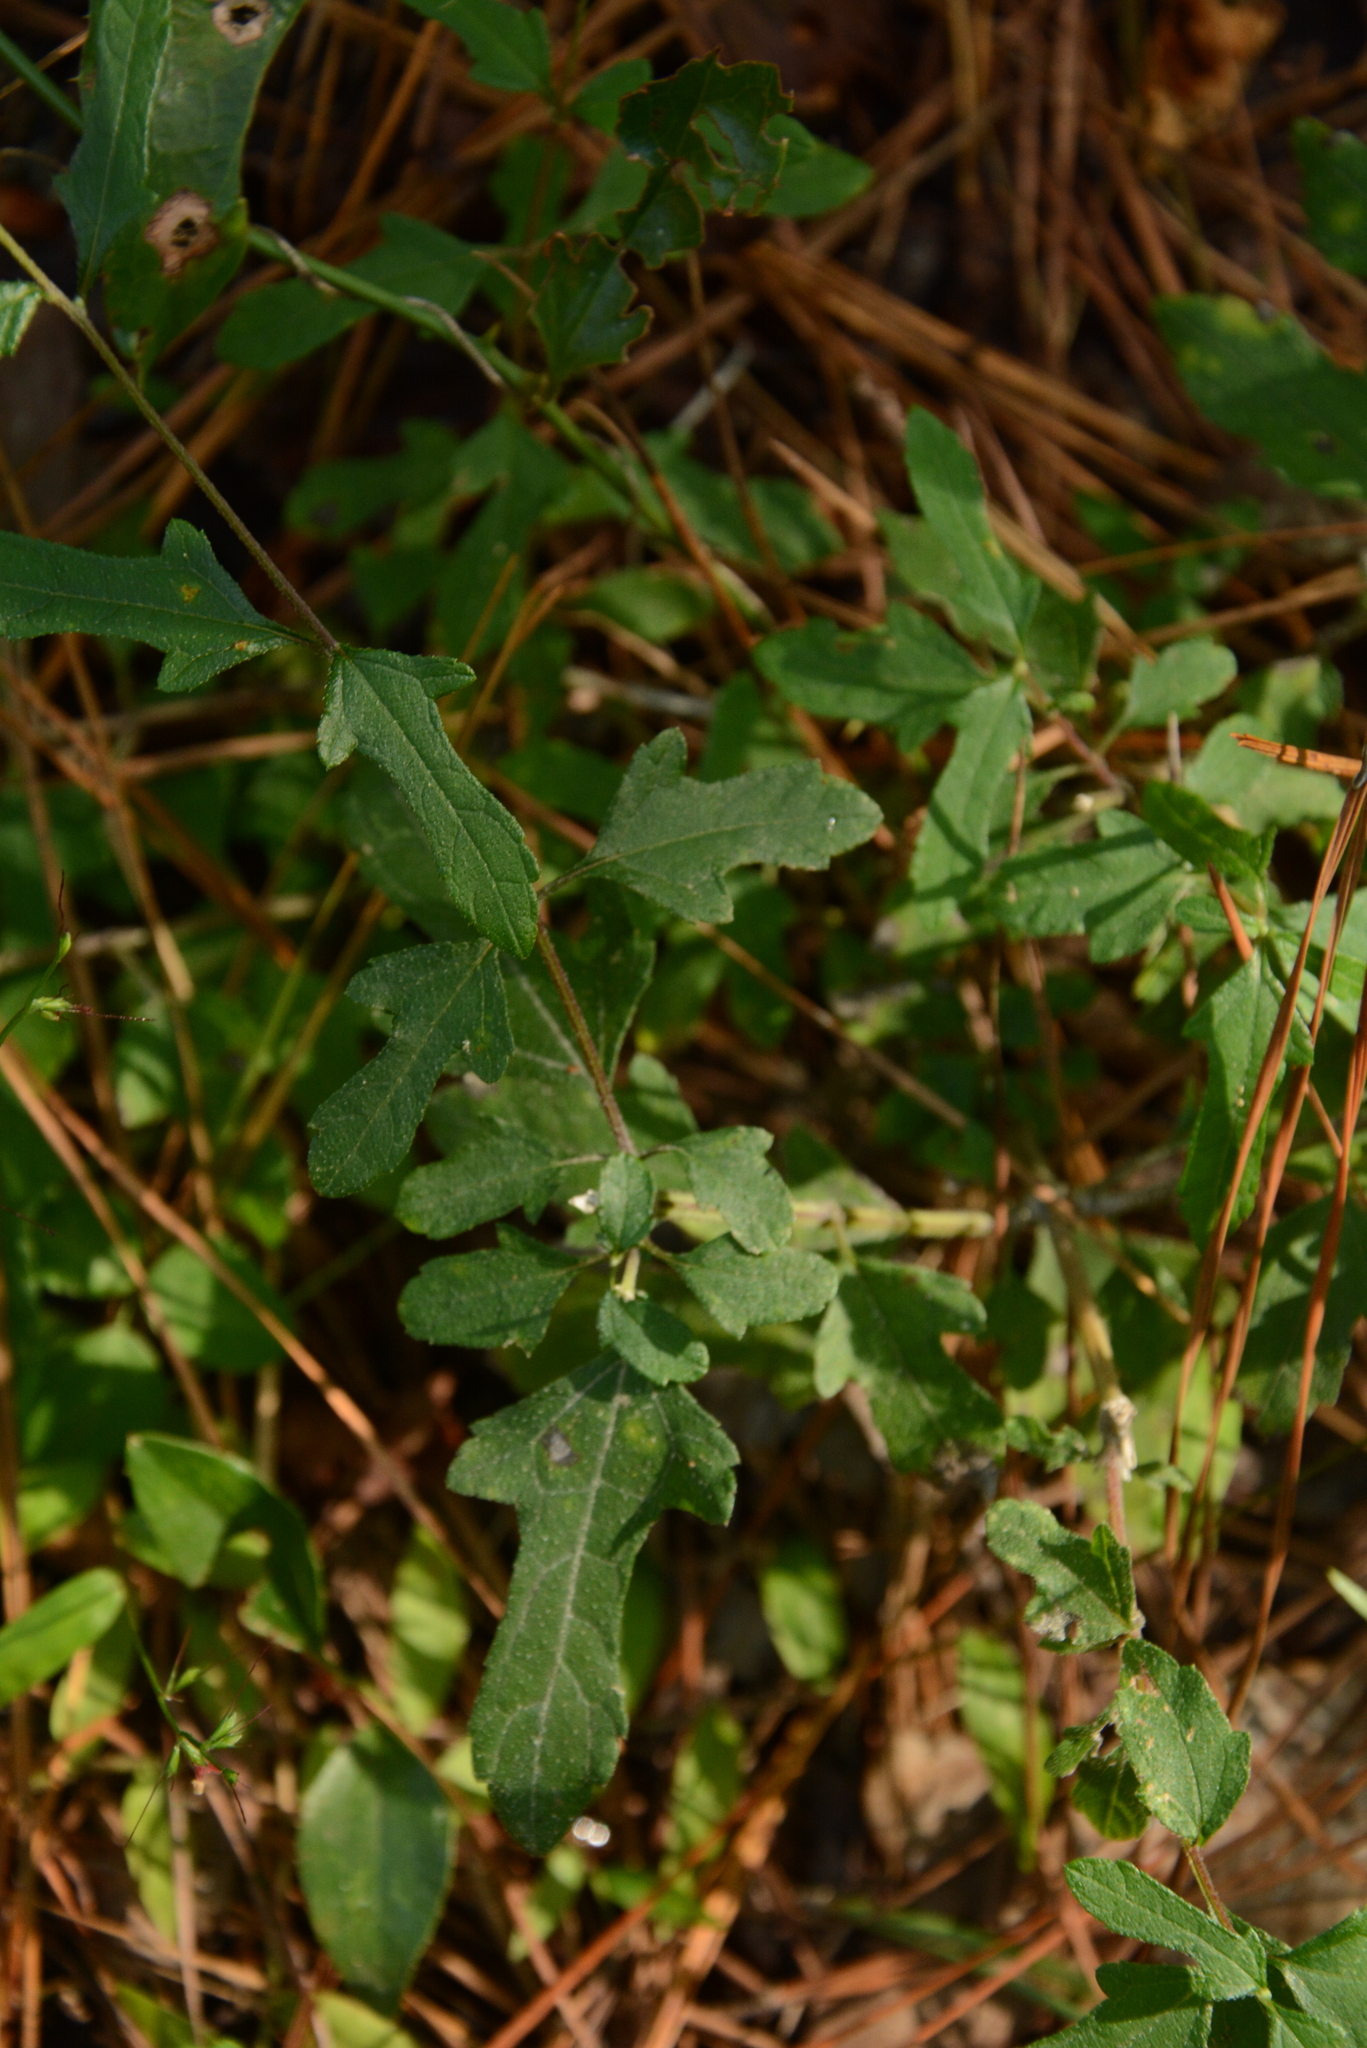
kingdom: Plantae
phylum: Tracheophyta
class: Magnoliopsida
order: Asterales
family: Asteraceae
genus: Melanthera
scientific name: Melanthera nivea
